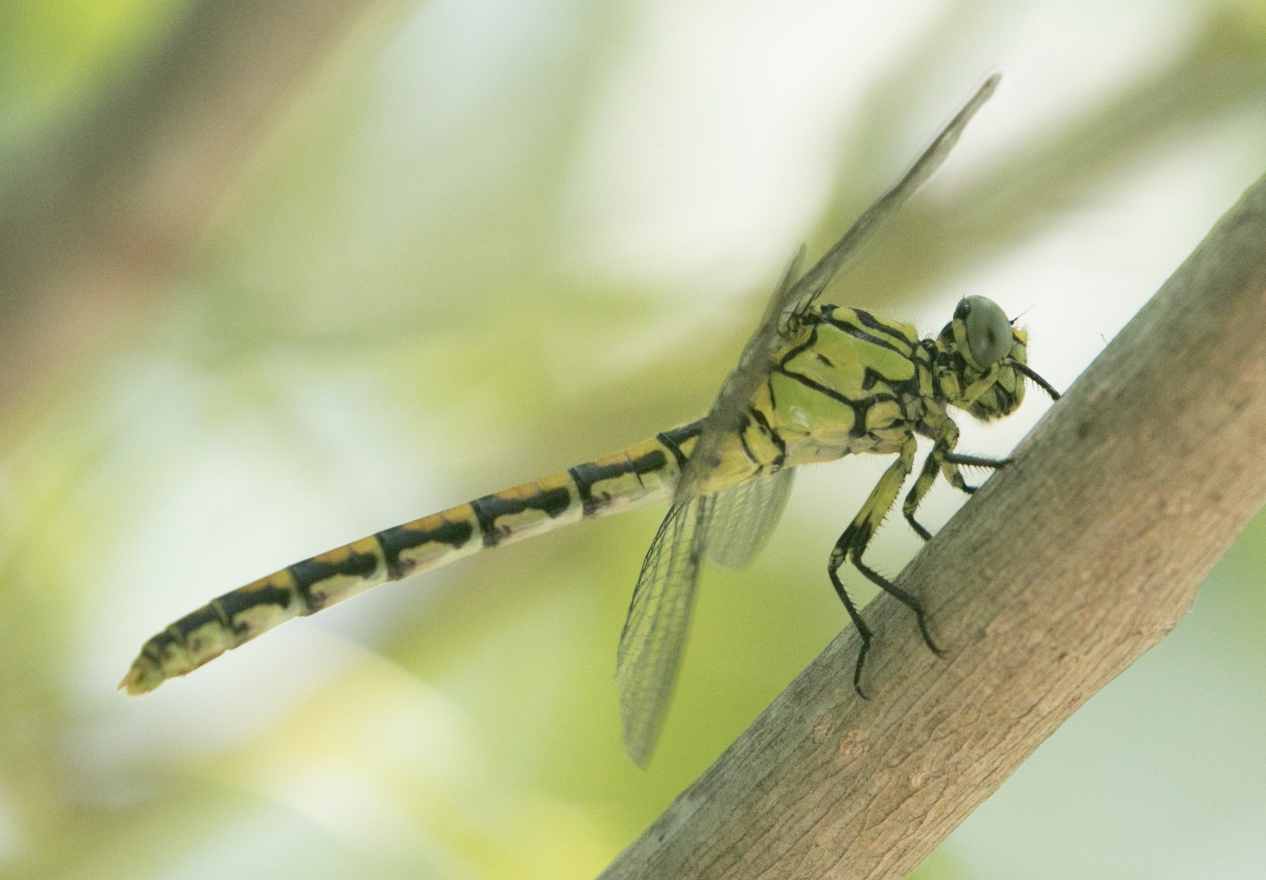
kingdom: Animalia
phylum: Arthropoda
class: Insecta
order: Odonata
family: Gomphidae
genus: Onychogomphus
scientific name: Onychogomphus forcipatus
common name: Small pincertail
